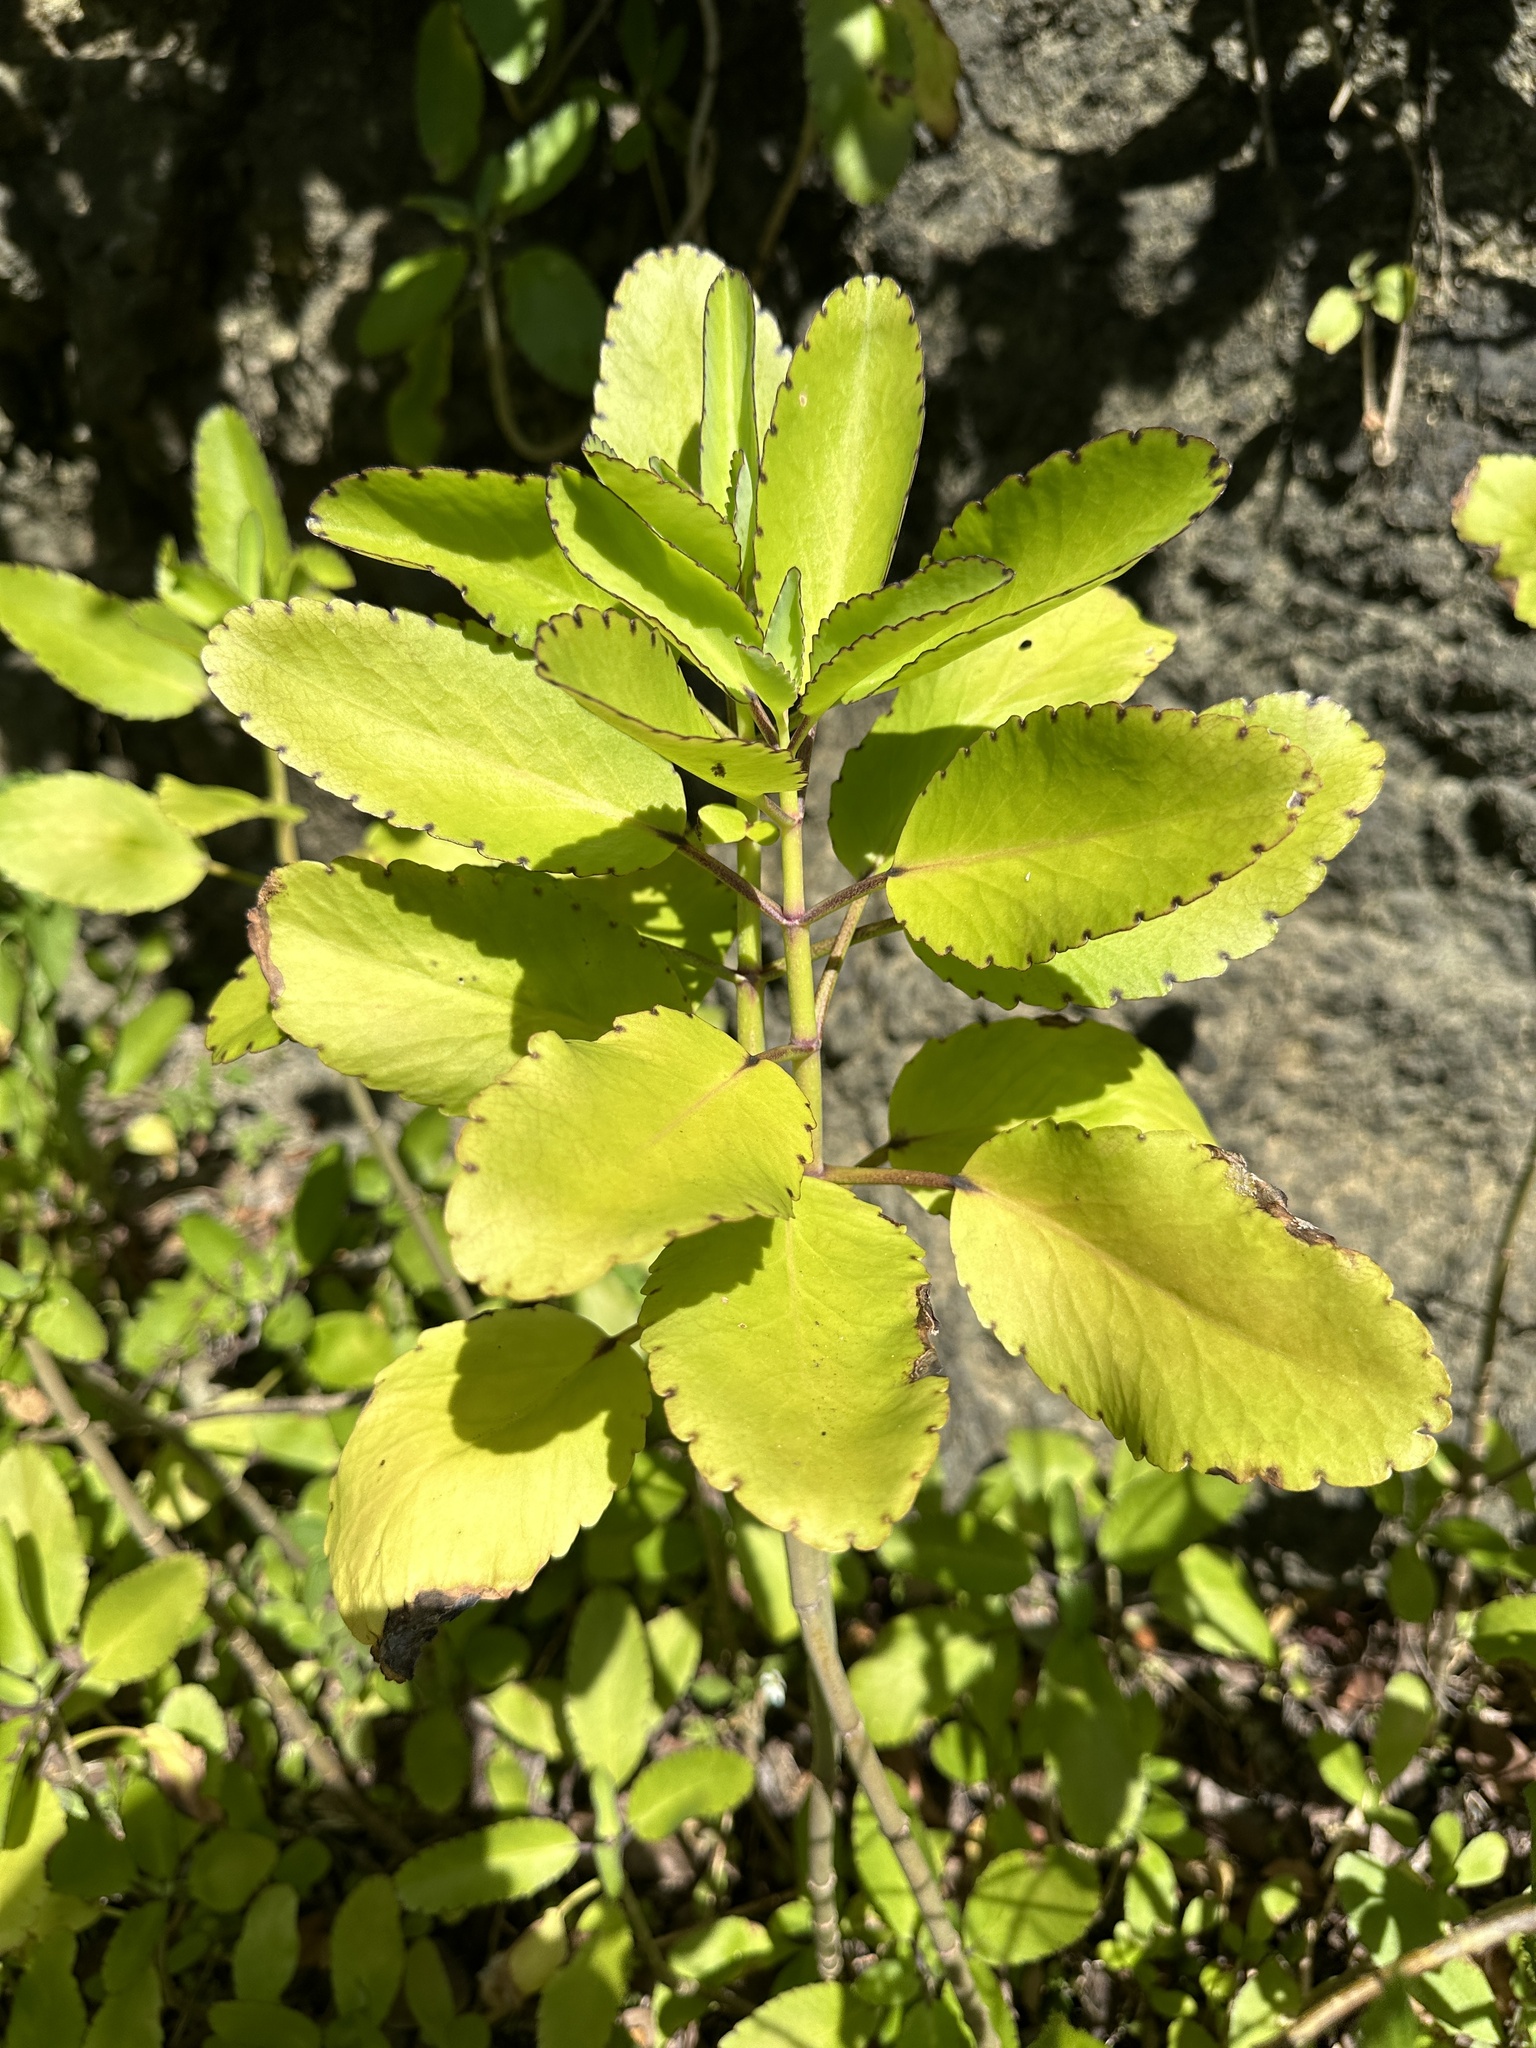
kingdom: Plantae
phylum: Tracheophyta
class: Magnoliopsida
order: Saxifragales
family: Crassulaceae
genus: Kalanchoe
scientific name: Kalanchoe pinnata
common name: Cathedral bells
